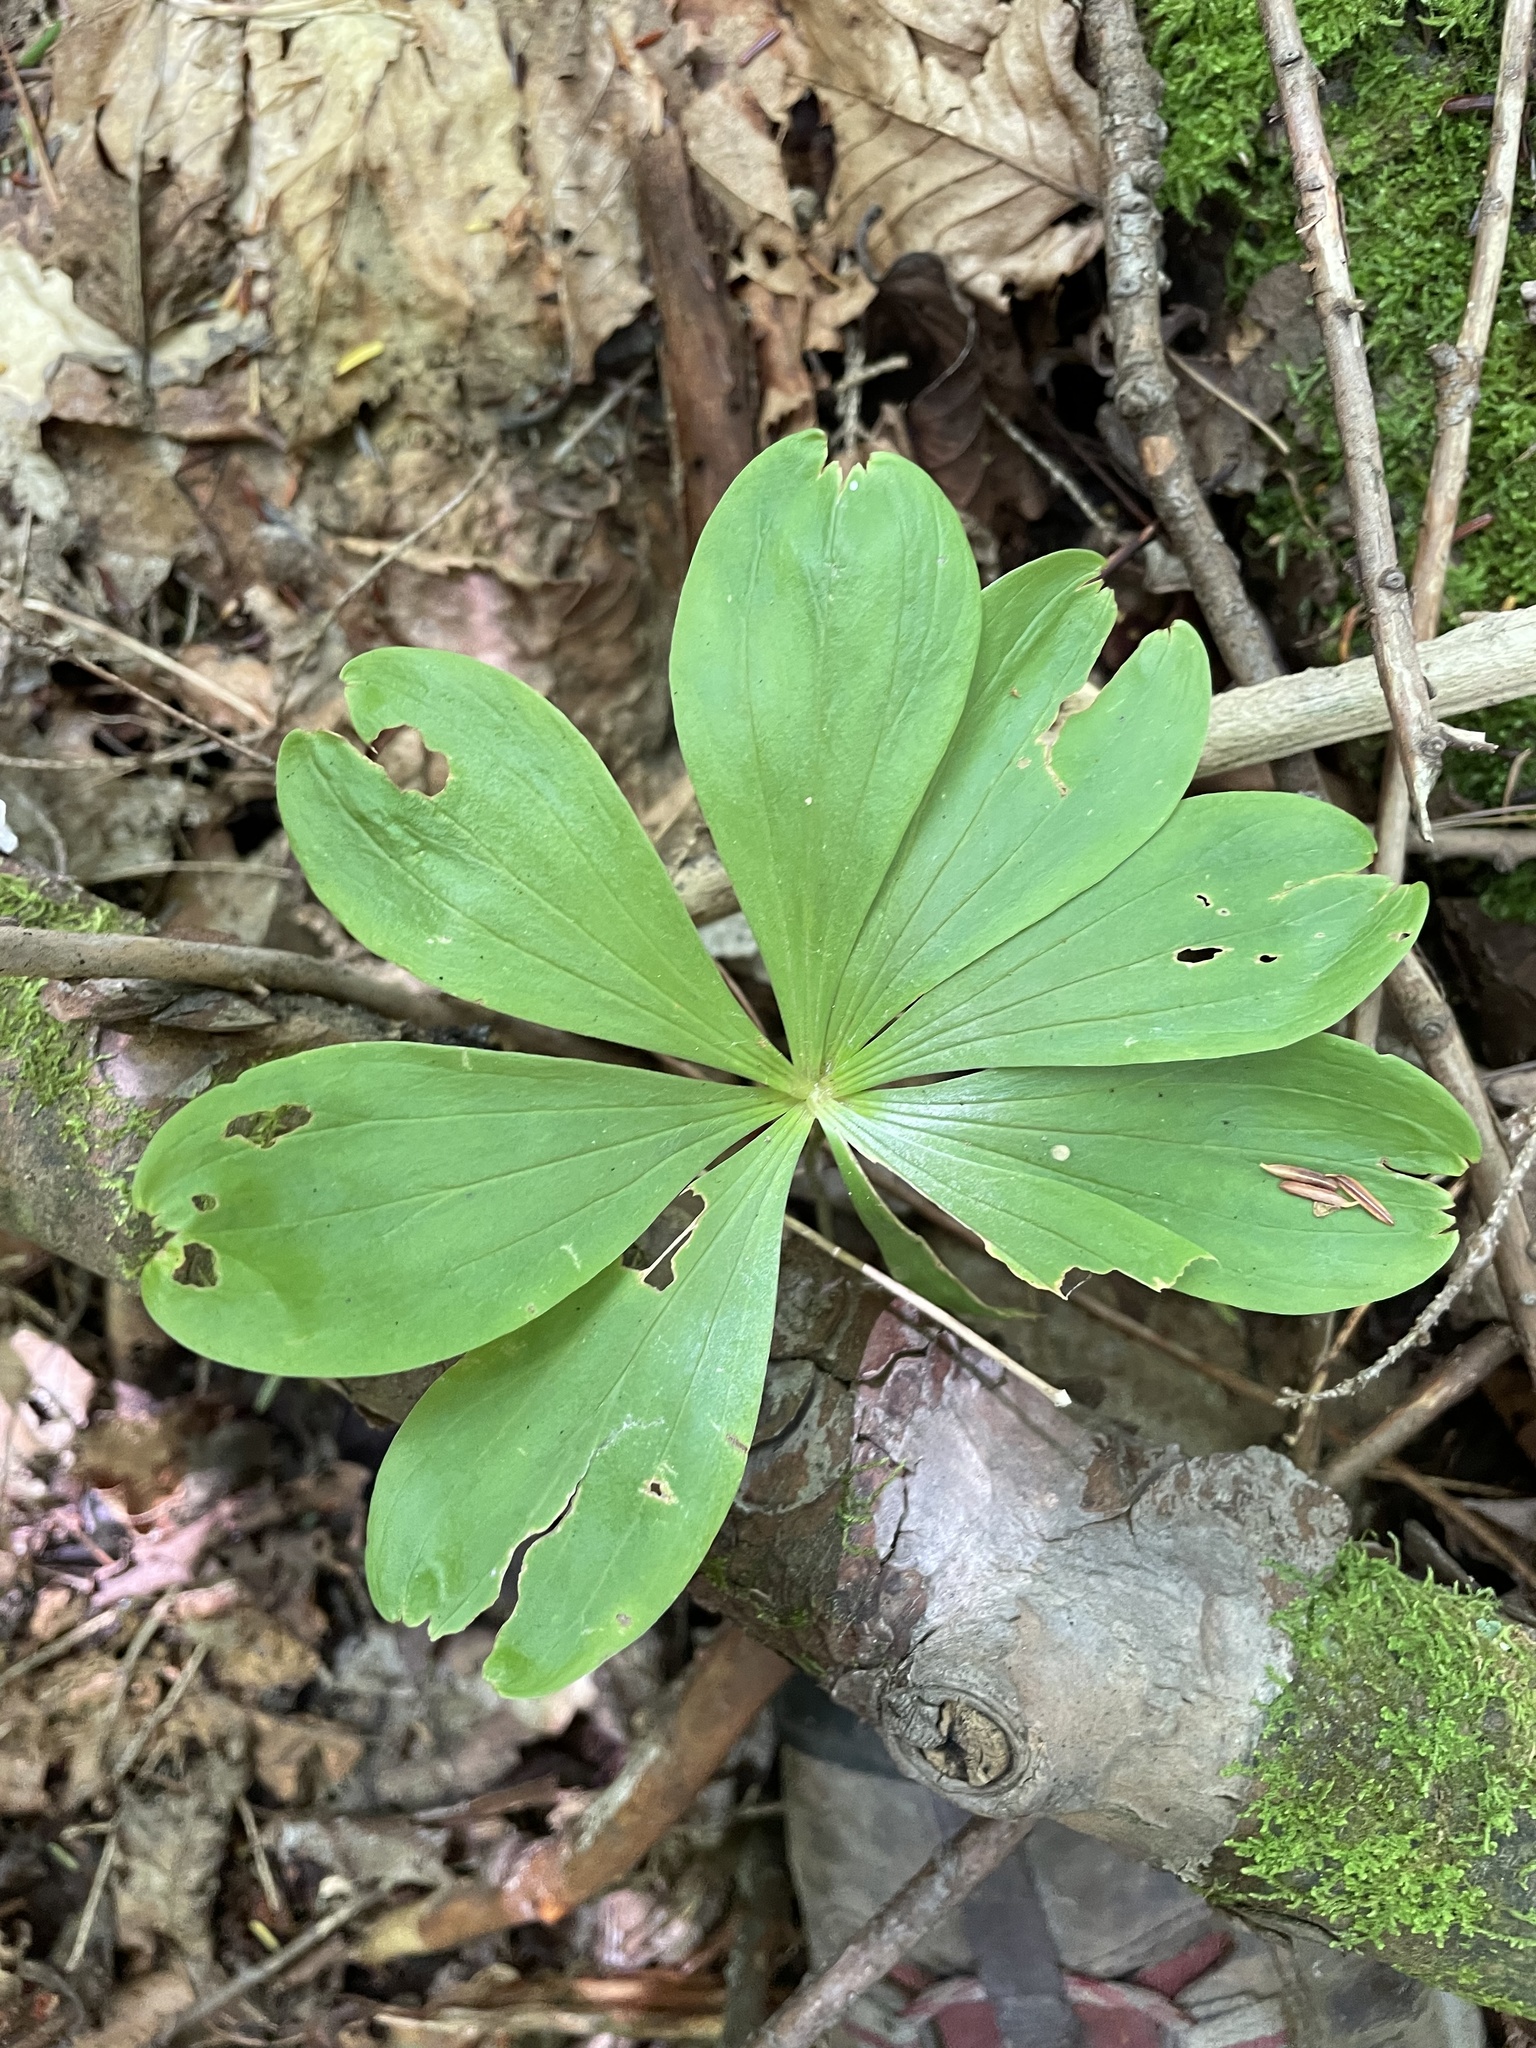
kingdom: Plantae
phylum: Tracheophyta
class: Liliopsida
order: Liliales
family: Liliaceae
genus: Medeola
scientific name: Medeola virginiana
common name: Indian cucumber-root
